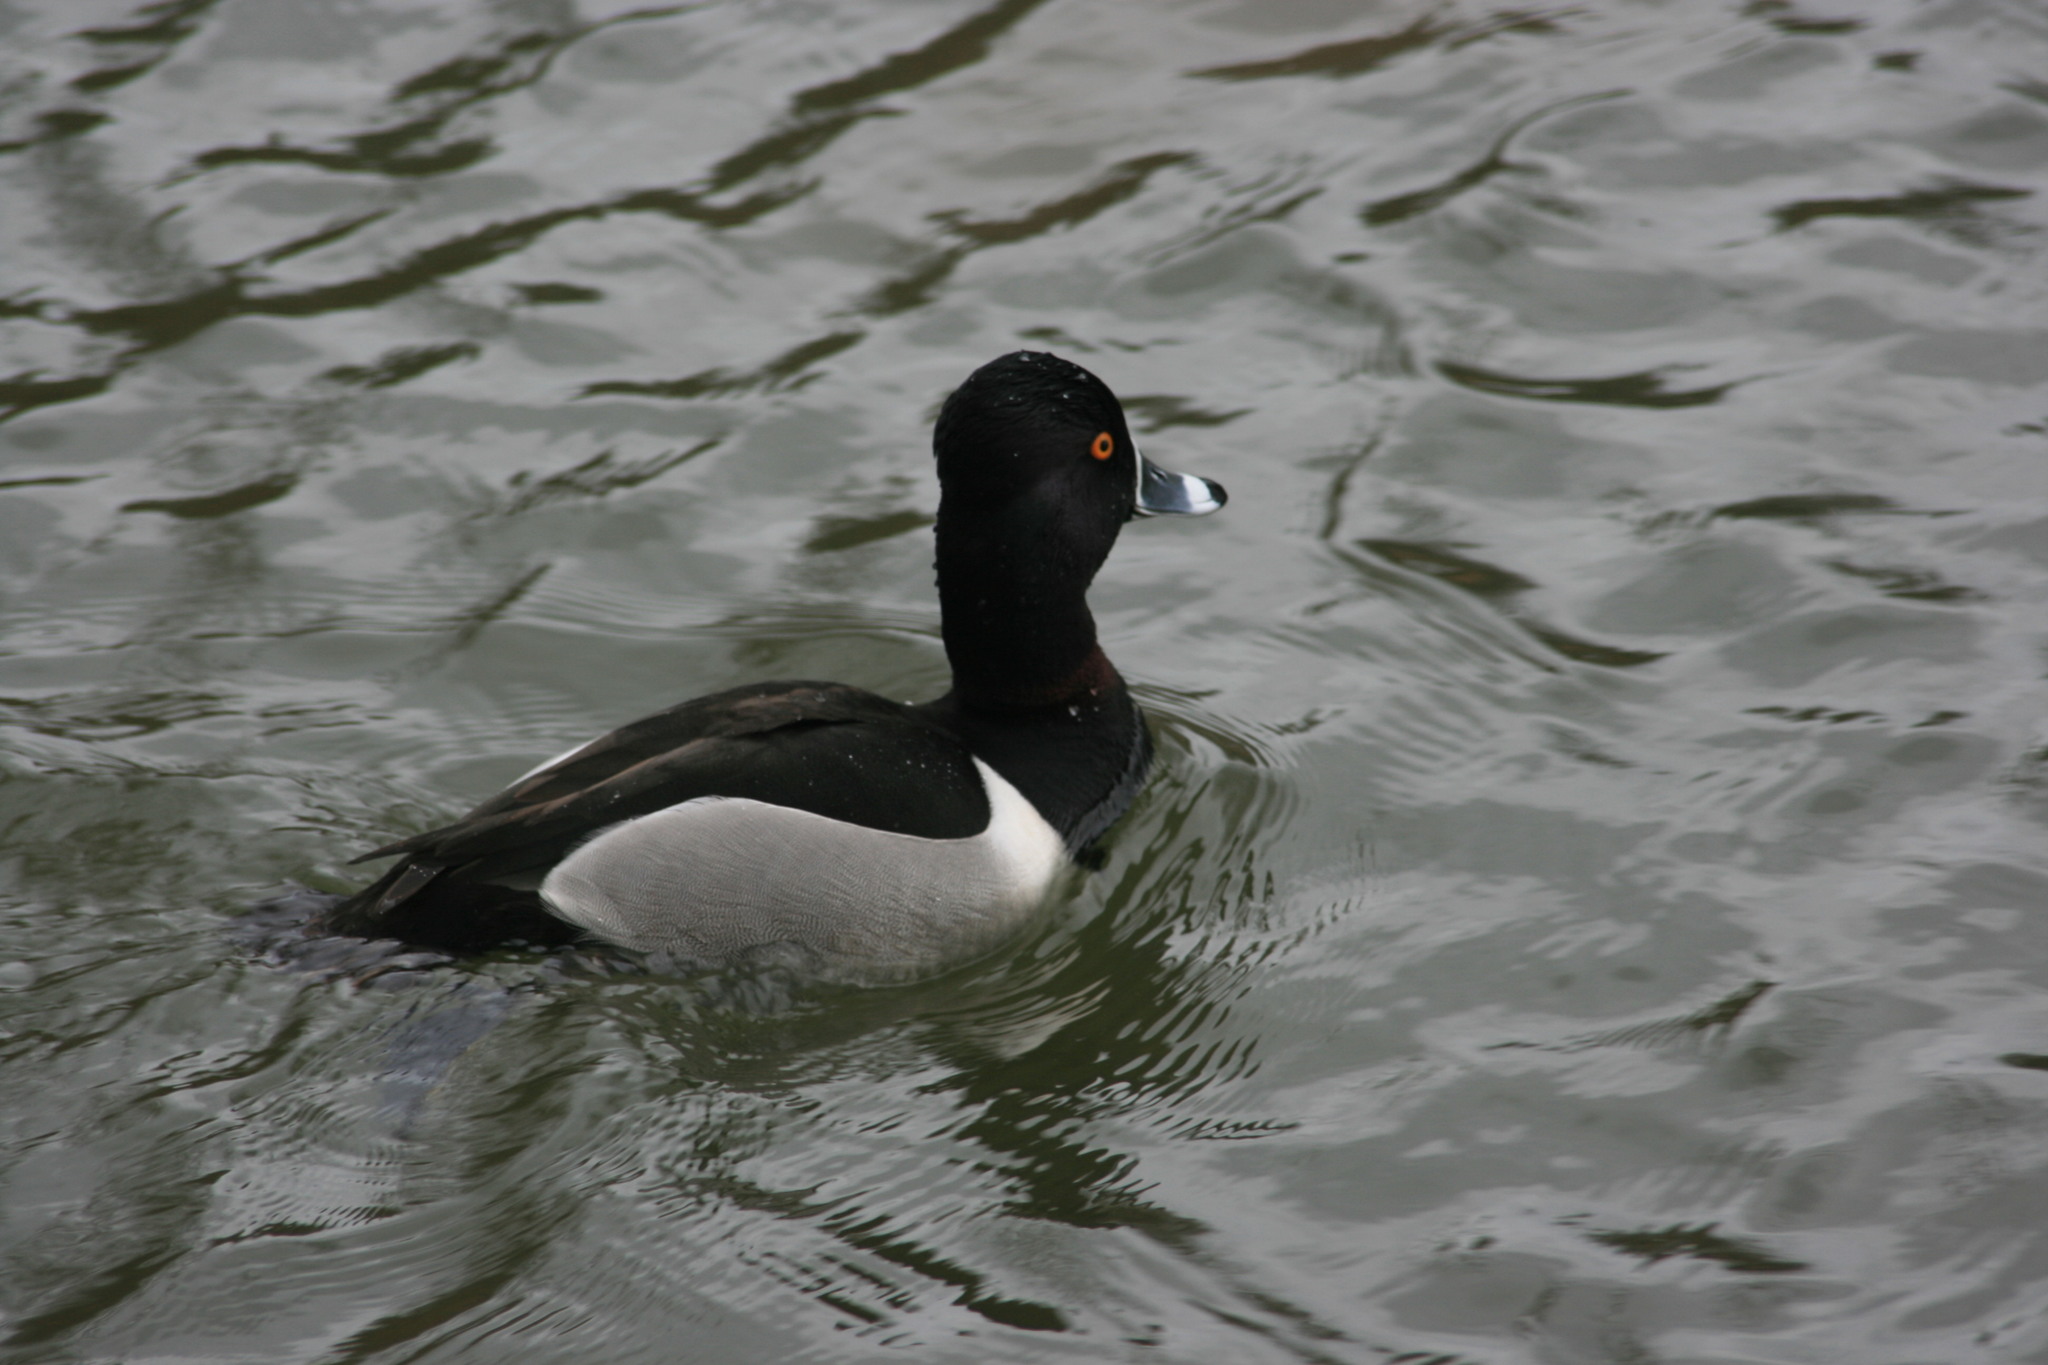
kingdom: Animalia
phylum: Chordata
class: Aves
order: Anseriformes
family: Anatidae
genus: Aythya
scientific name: Aythya collaris
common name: Ring-necked duck
